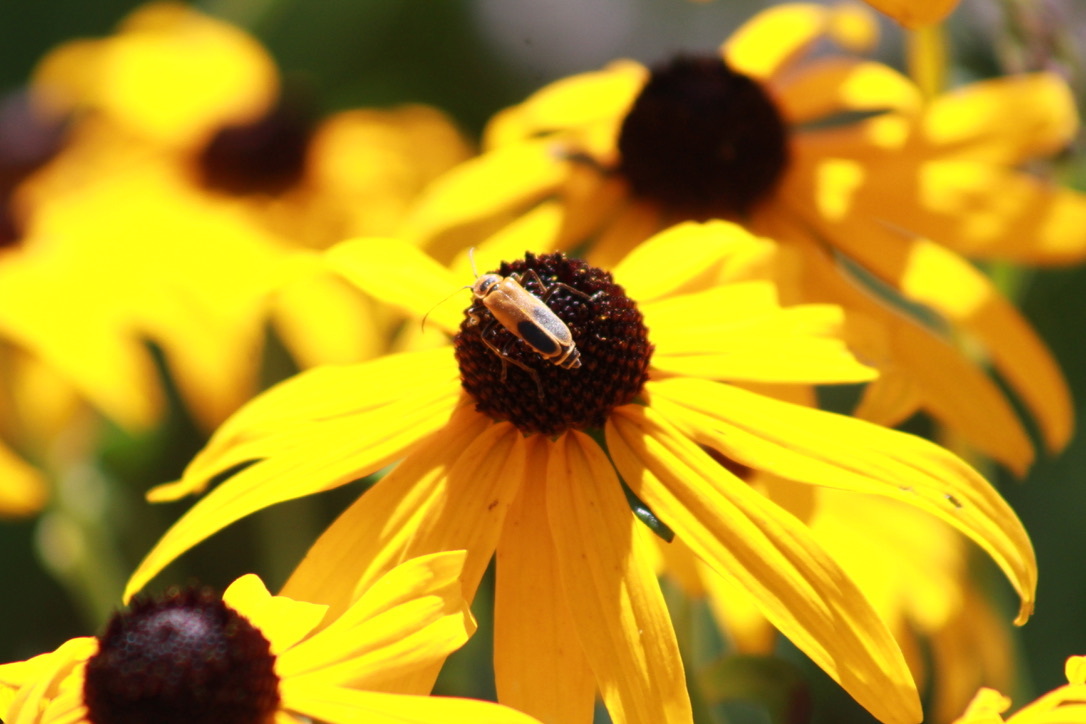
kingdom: Animalia
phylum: Arthropoda
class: Insecta
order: Coleoptera
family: Cantharidae
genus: Chauliognathus
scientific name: Chauliognathus pensylvanicus
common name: Goldenrod soldier beetle
